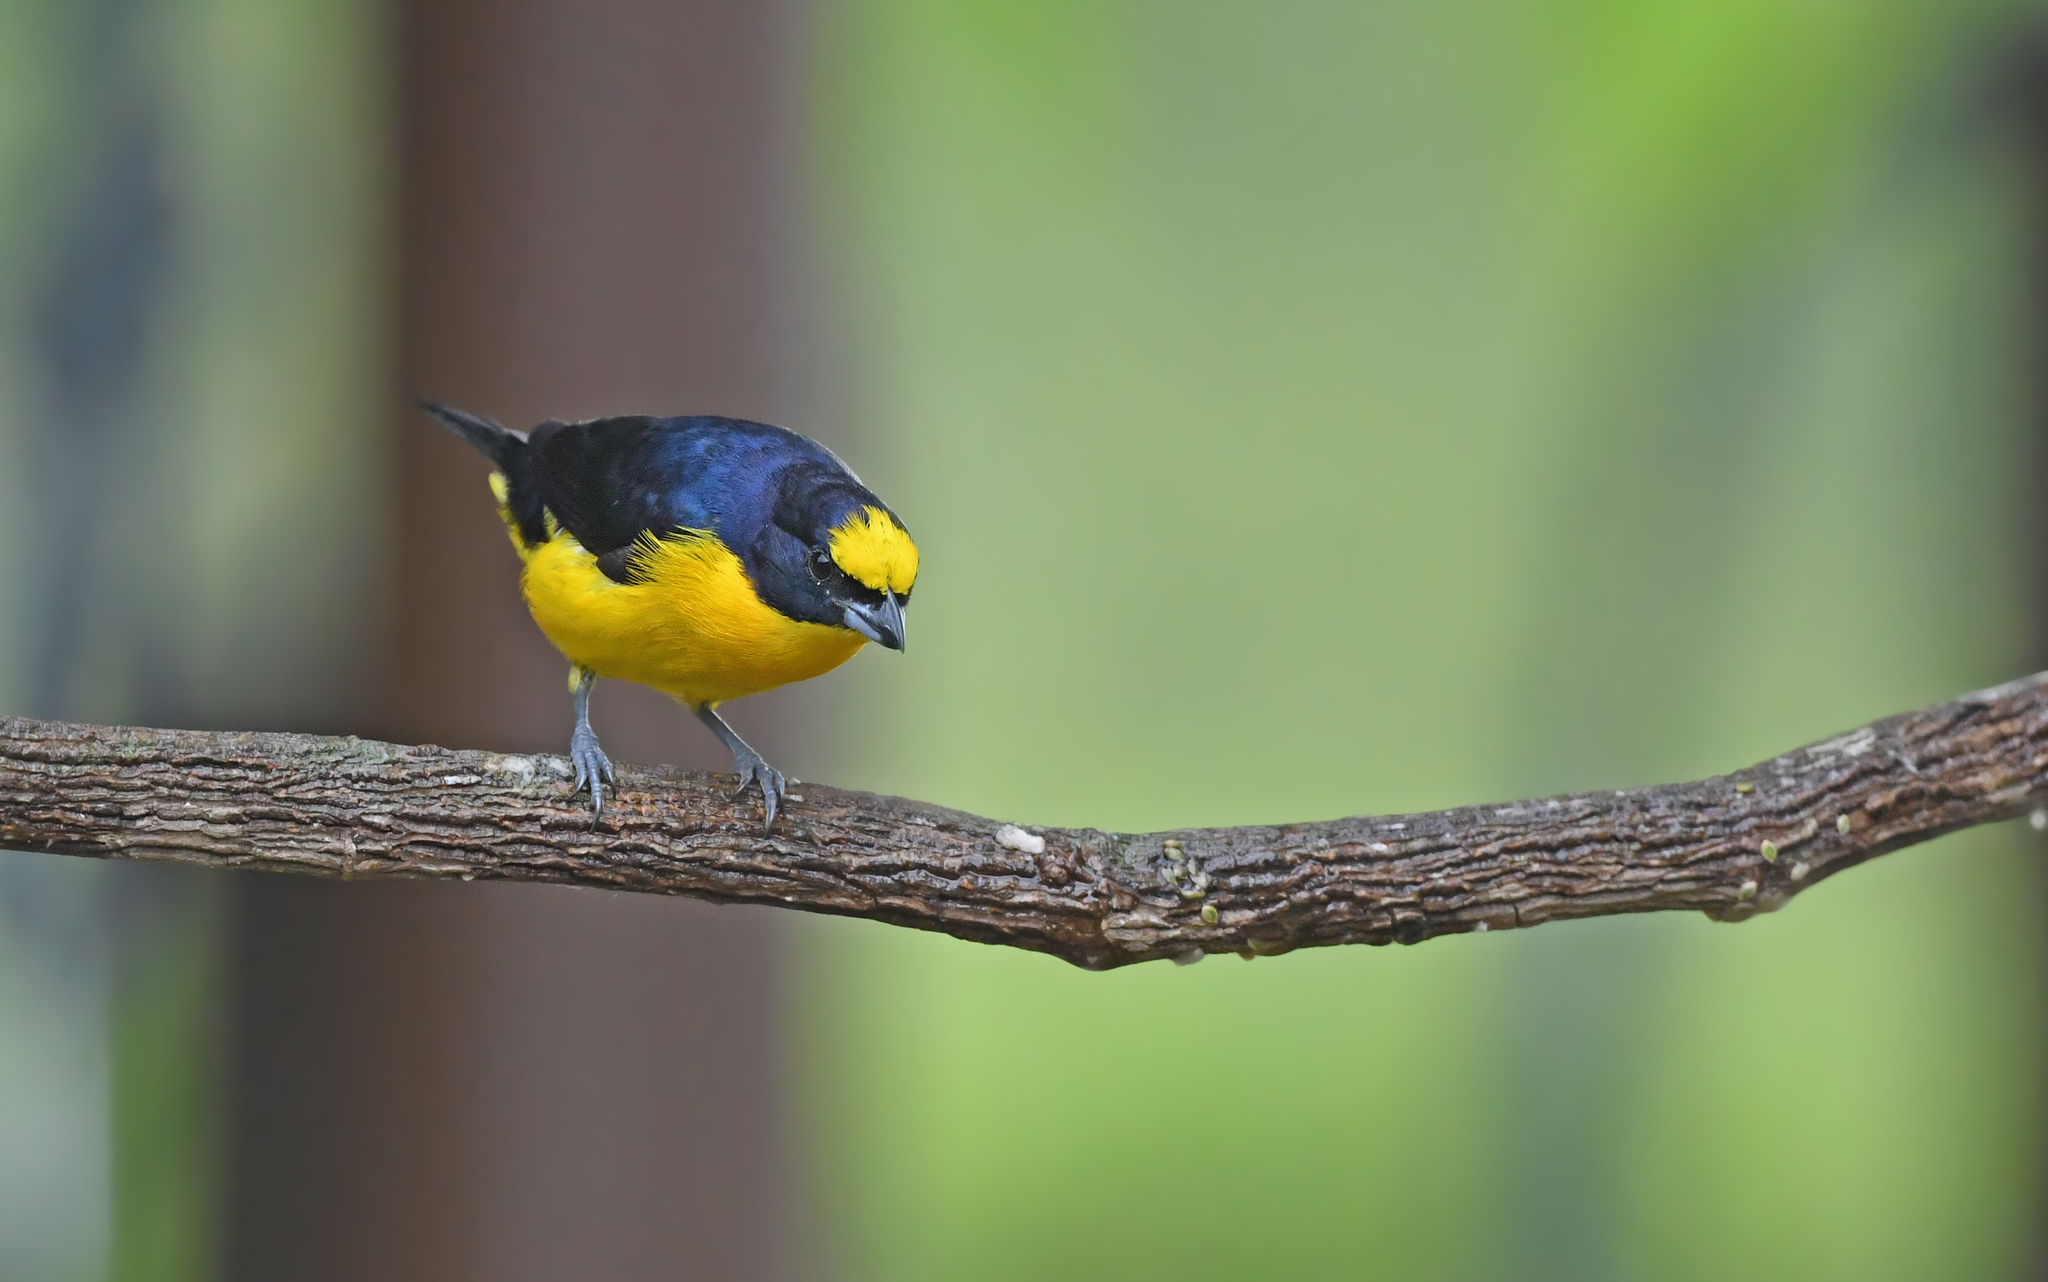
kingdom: Animalia
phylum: Chordata
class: Aves
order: Passeriformes
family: Fringillidae
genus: Euphonia
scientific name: Euphonia laniirostris
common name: Thick-billed euphonia
